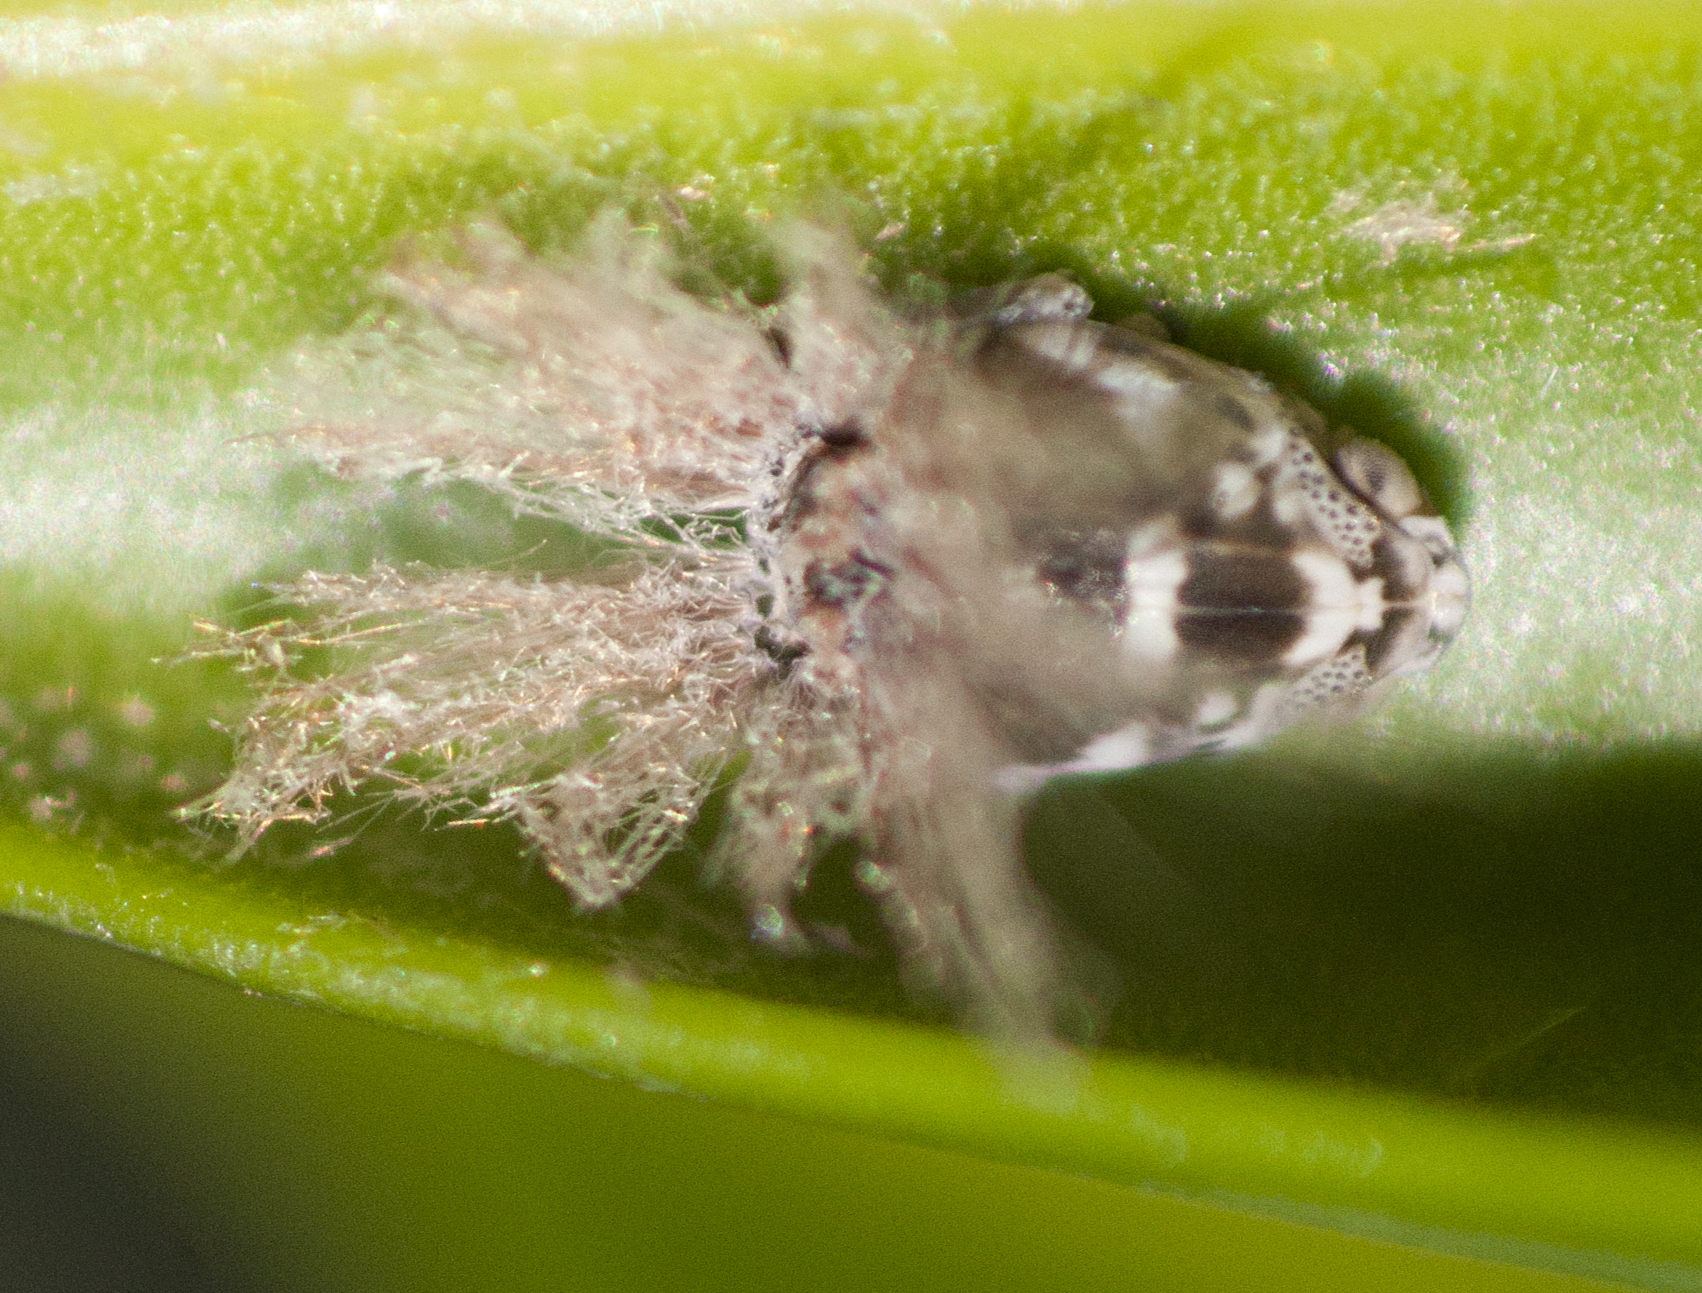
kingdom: Animalia
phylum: Arthropoda
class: Insecta
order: Hemiptera
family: Ricaniidae
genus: Scolypopa
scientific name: Scolypopa australis
